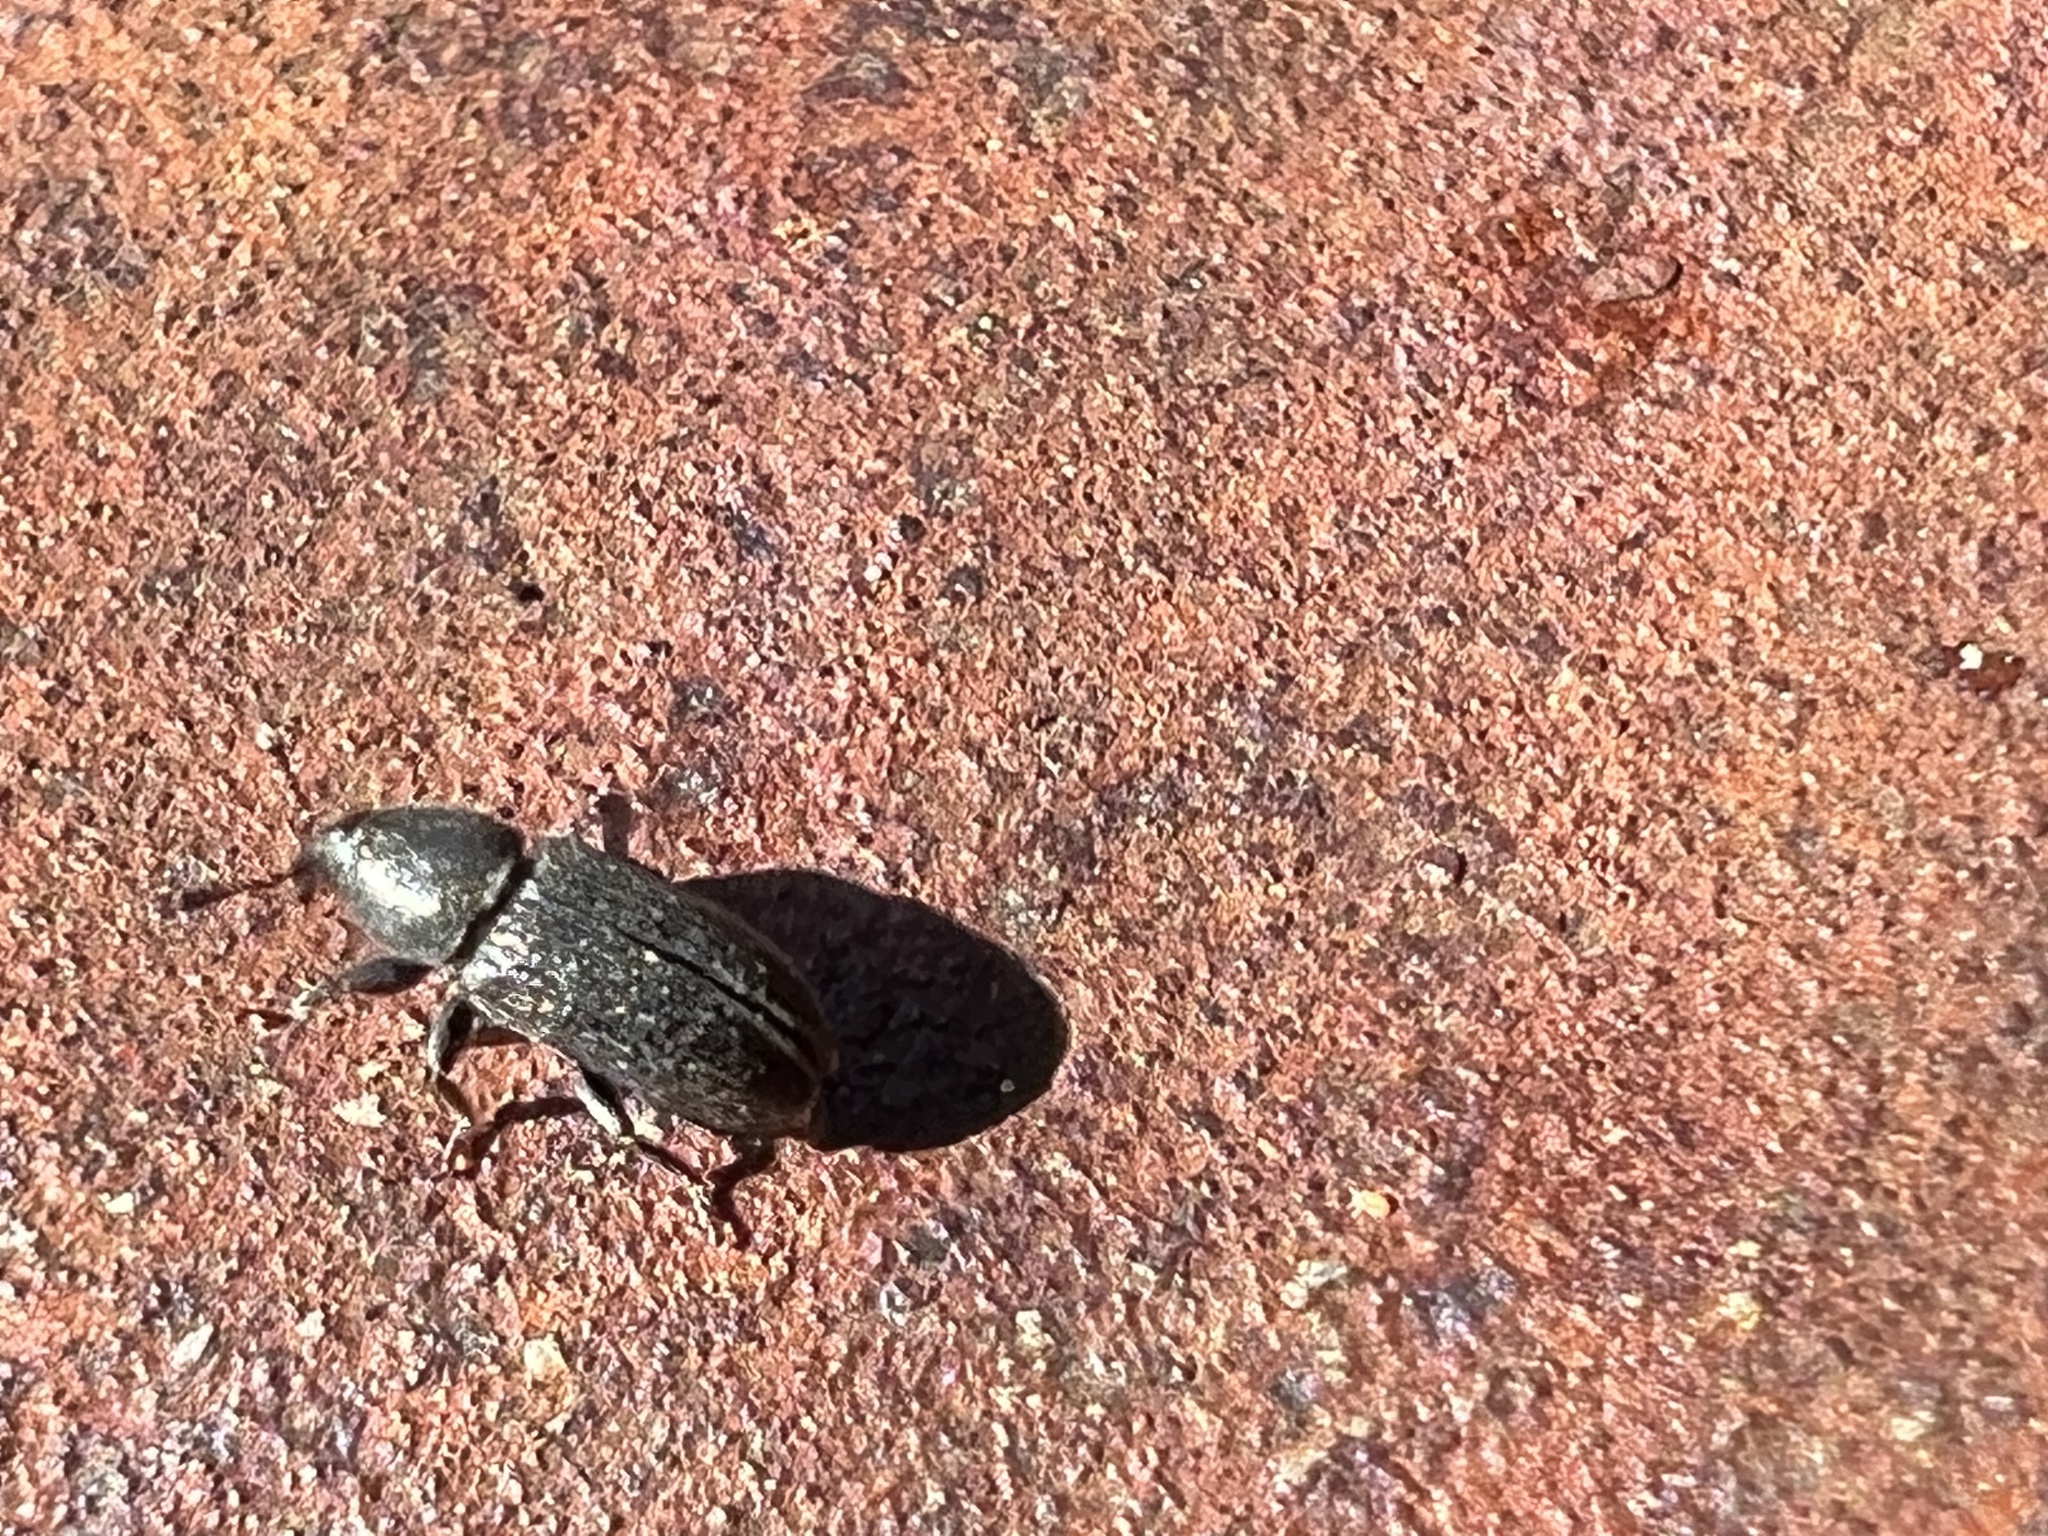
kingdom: Animalia
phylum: Arthropoda
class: Insecta
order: Coleoptera
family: Curculionidae
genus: Mecinus
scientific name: Mecinus pyraster
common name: Weevil
